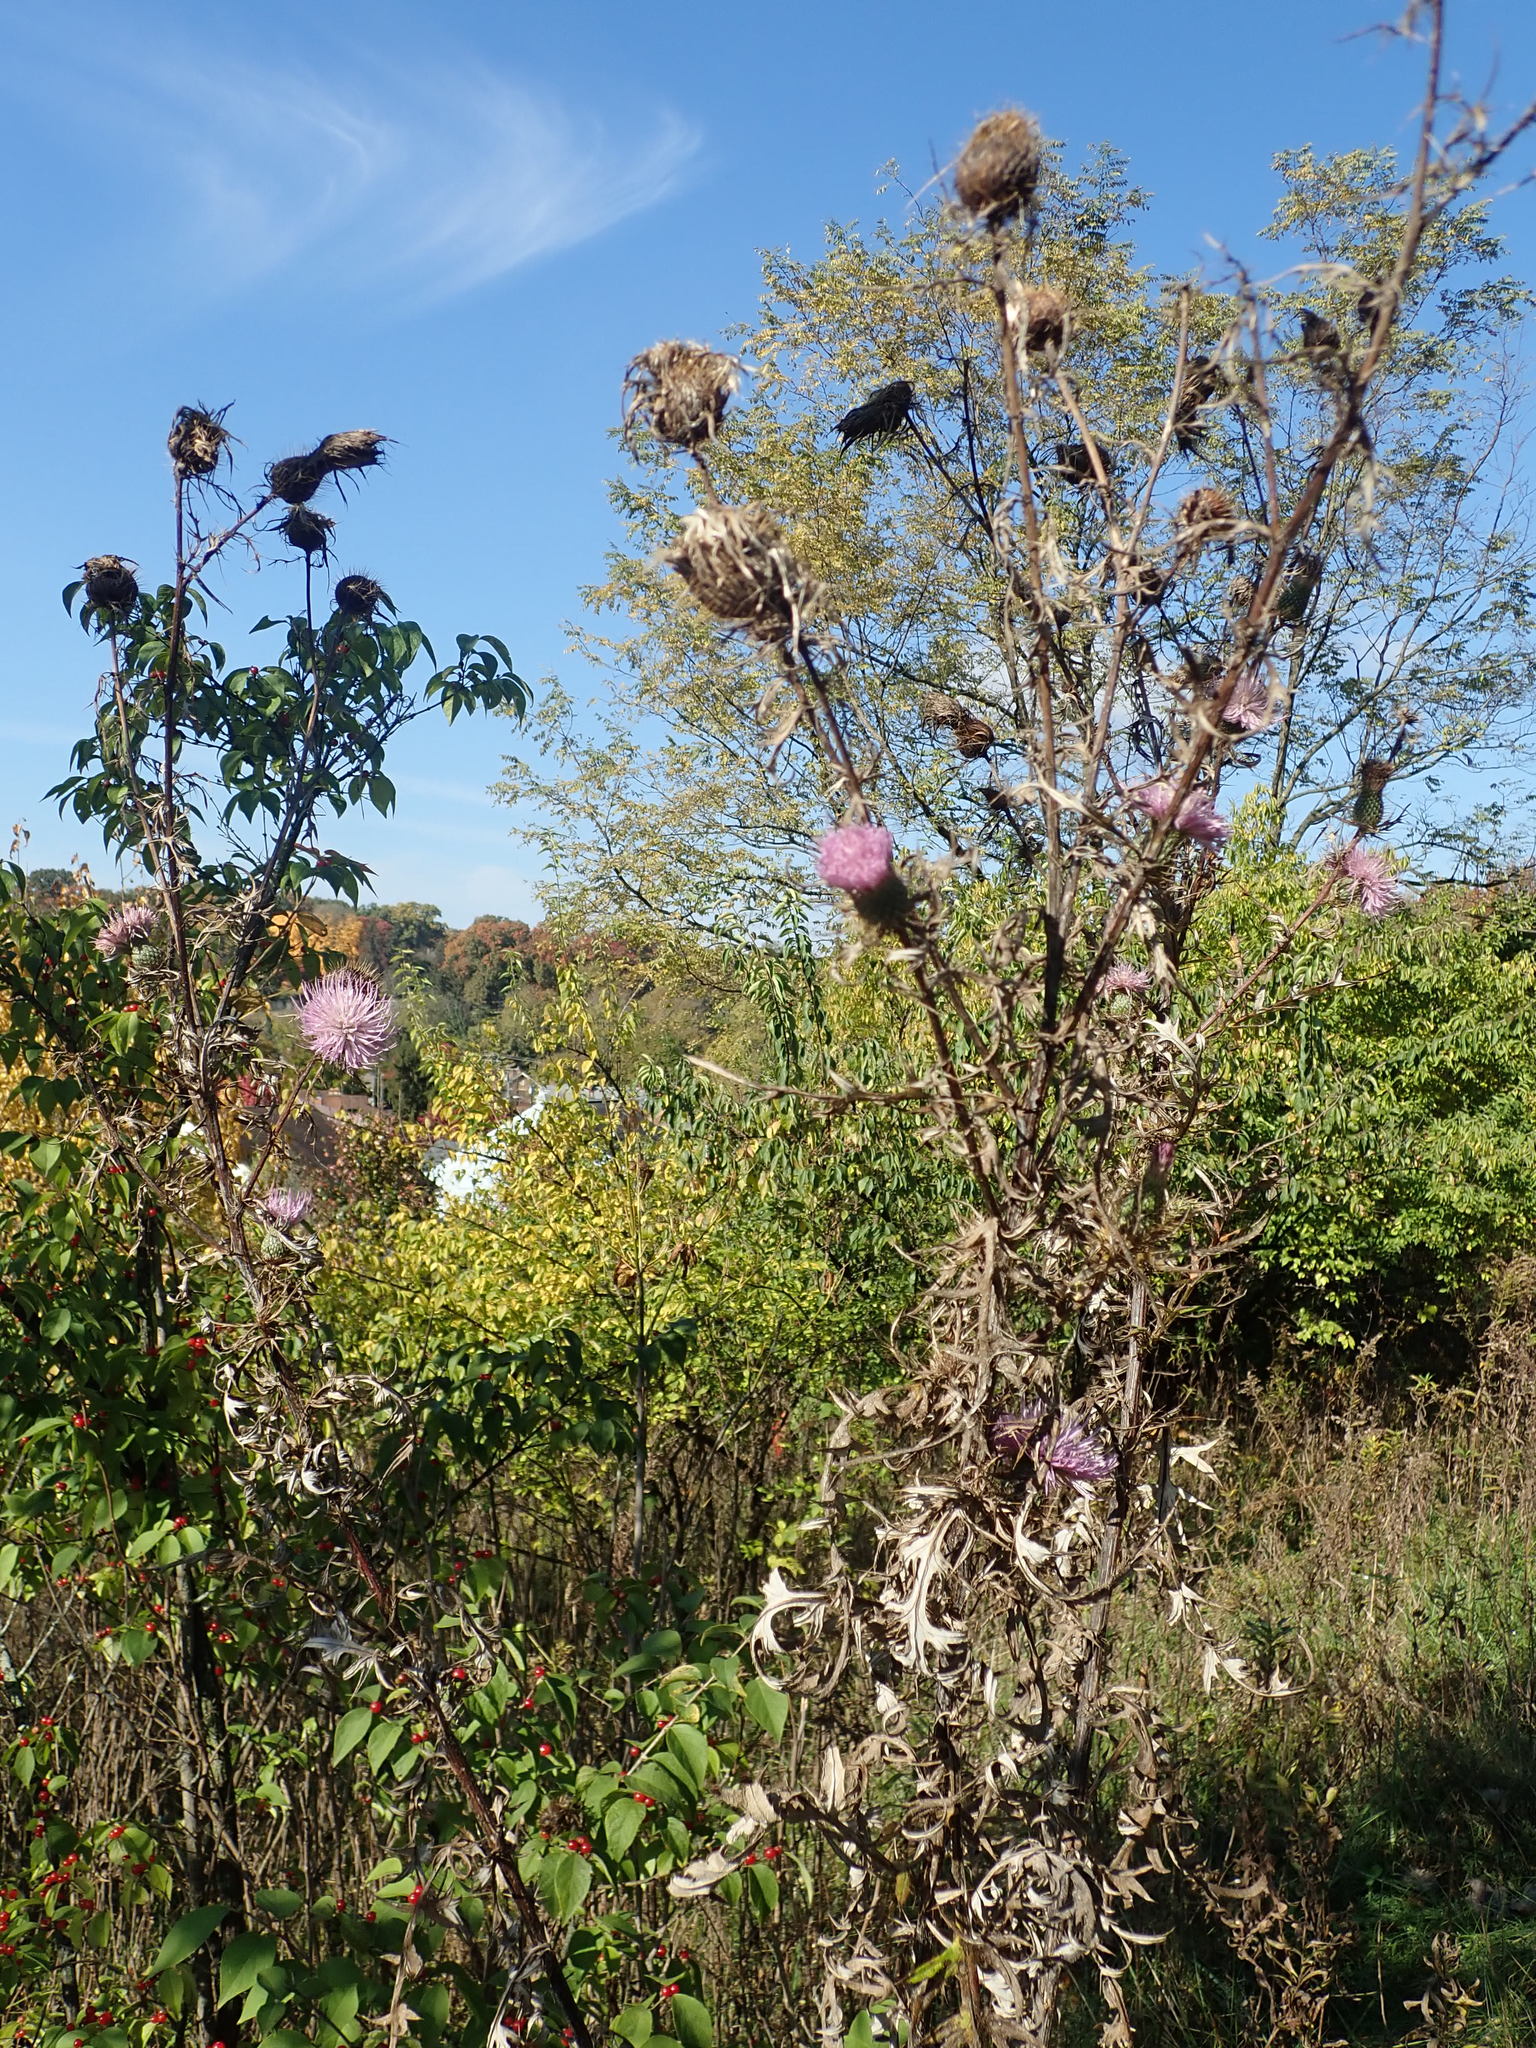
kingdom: Plantae
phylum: Tracheophyta
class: Magnoliopsida
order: Asterales
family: Asteraceae
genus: Cirsium
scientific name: Cirsium discolor
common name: Field thistle
